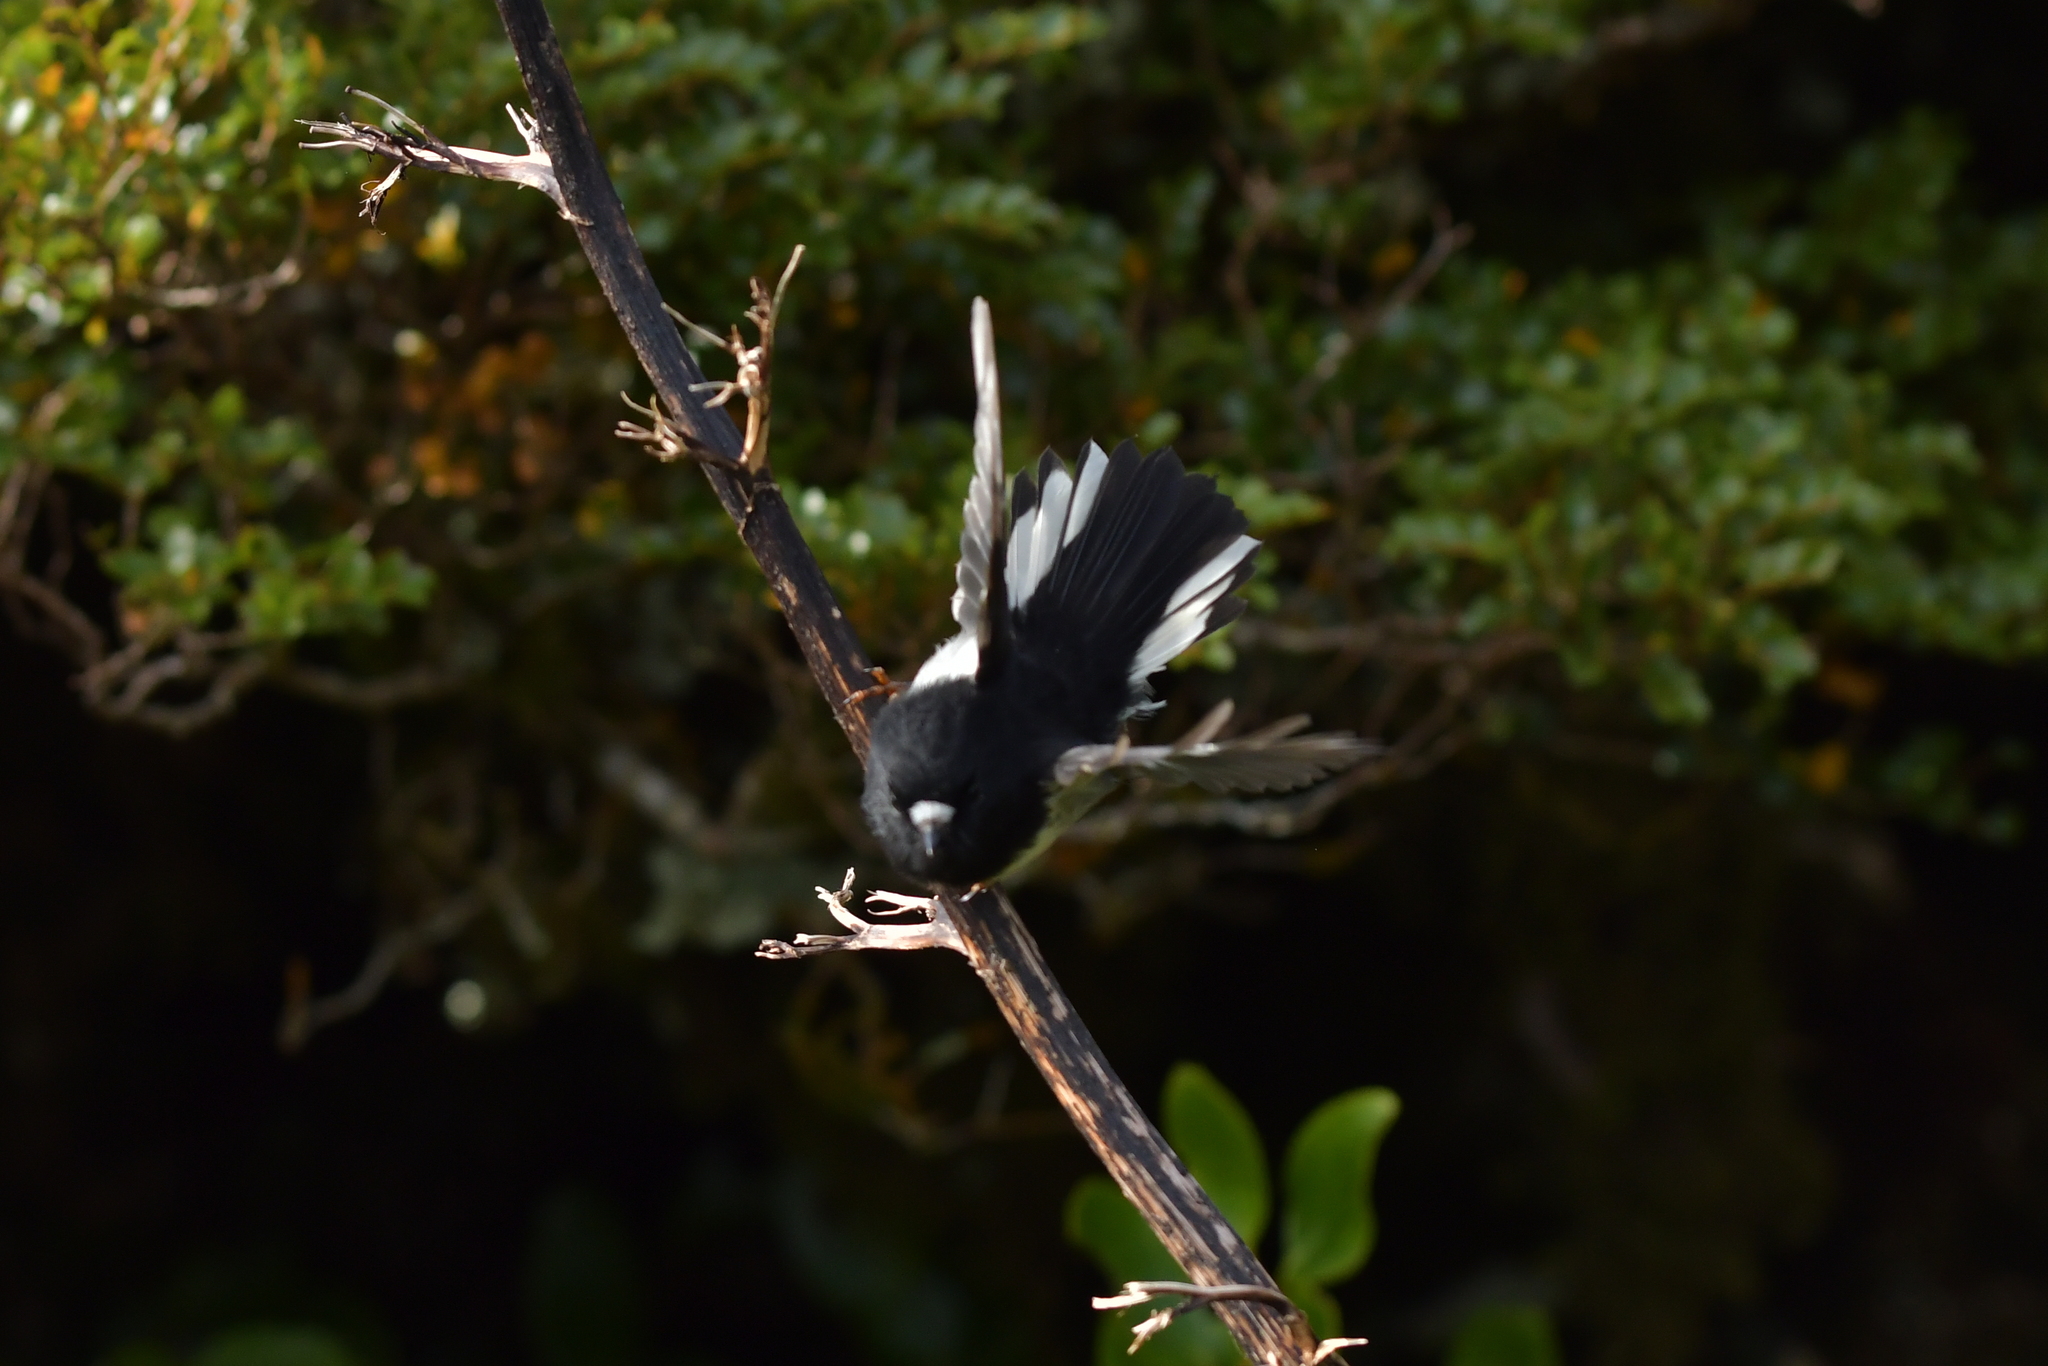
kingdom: Animalia
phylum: Chordata
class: Aves
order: Passeriformes
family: Petroicidae
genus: Petroica
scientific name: Petroica macrocephala
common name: Tomtit
